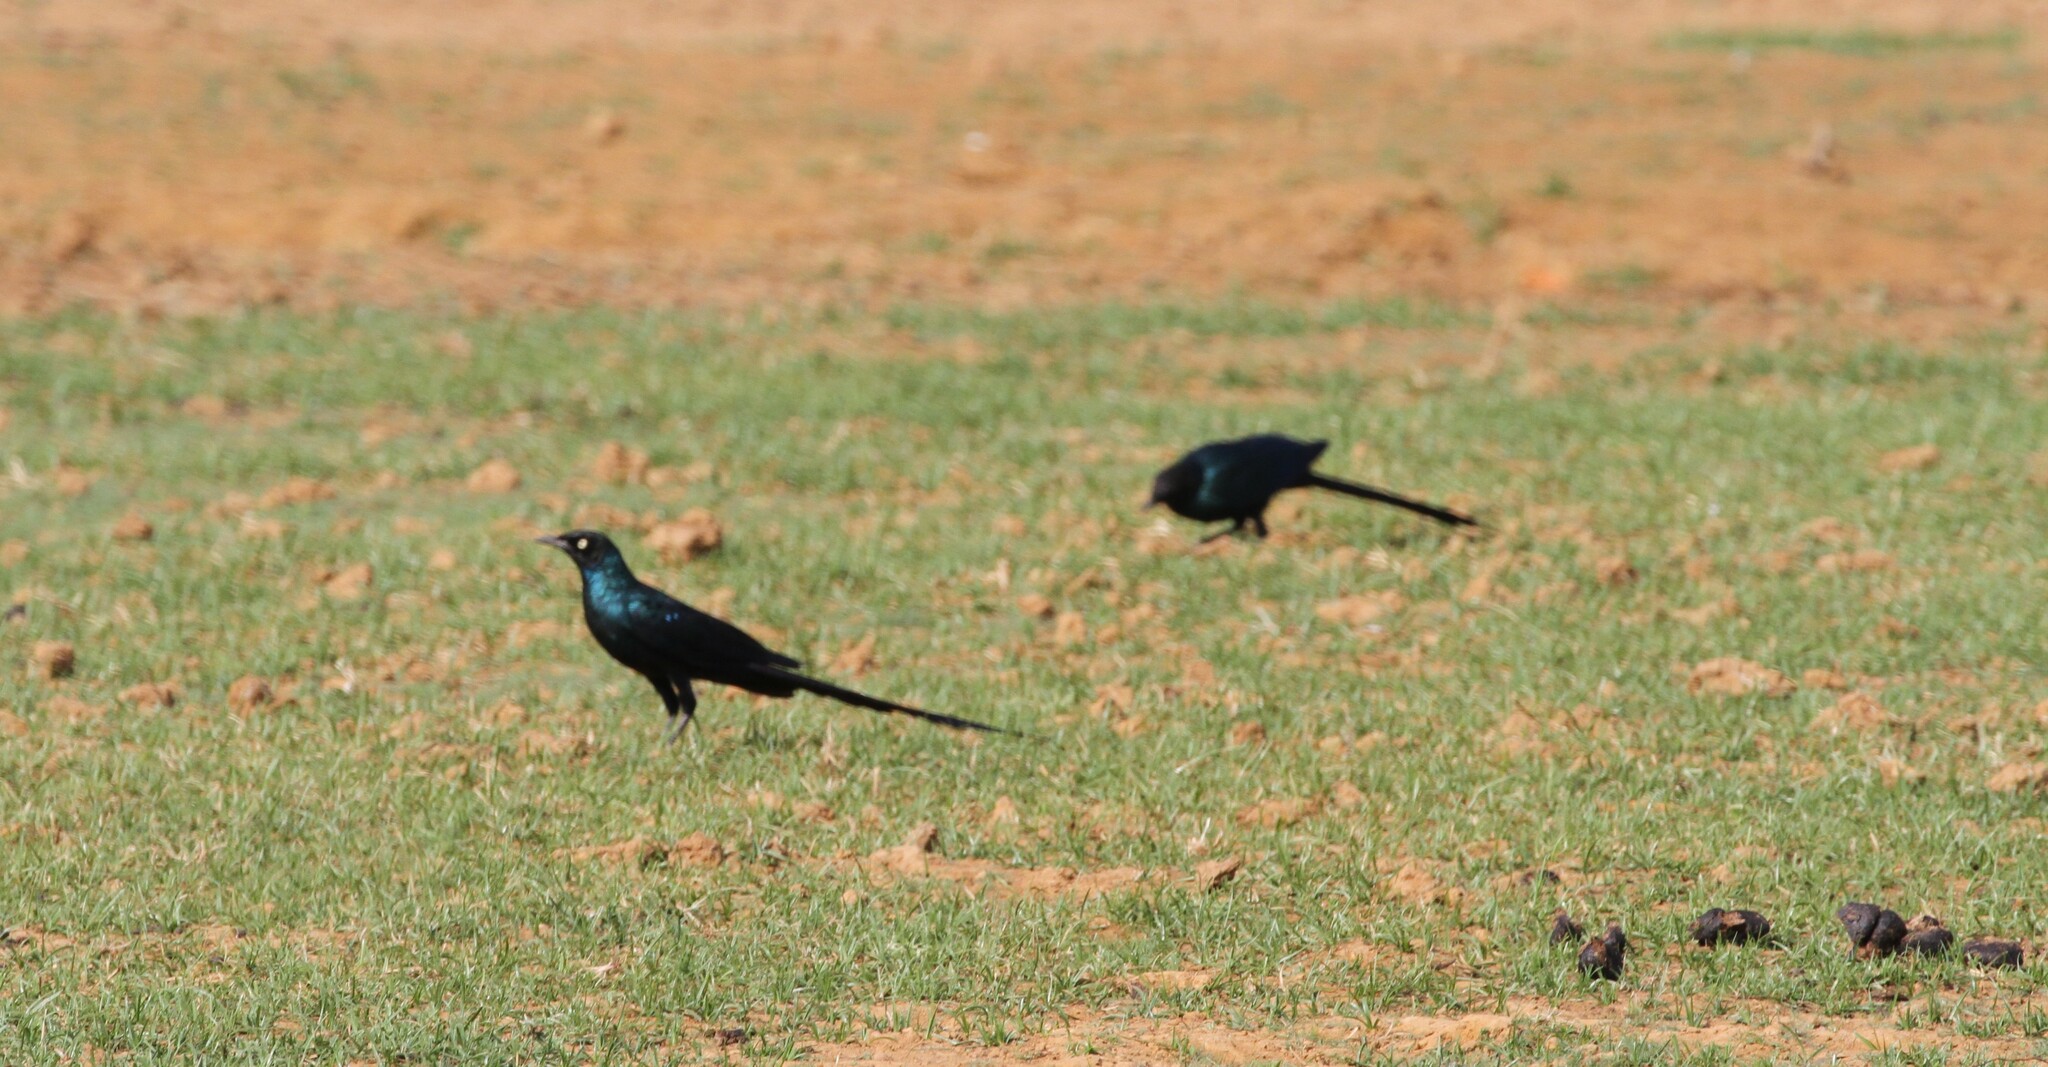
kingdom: Animalia
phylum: Chordata
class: Aves
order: Passeriformes
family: Sturnidae
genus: Lamprotornis
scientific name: Lamprotornis caudatus
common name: Long-tailed glossy starling
